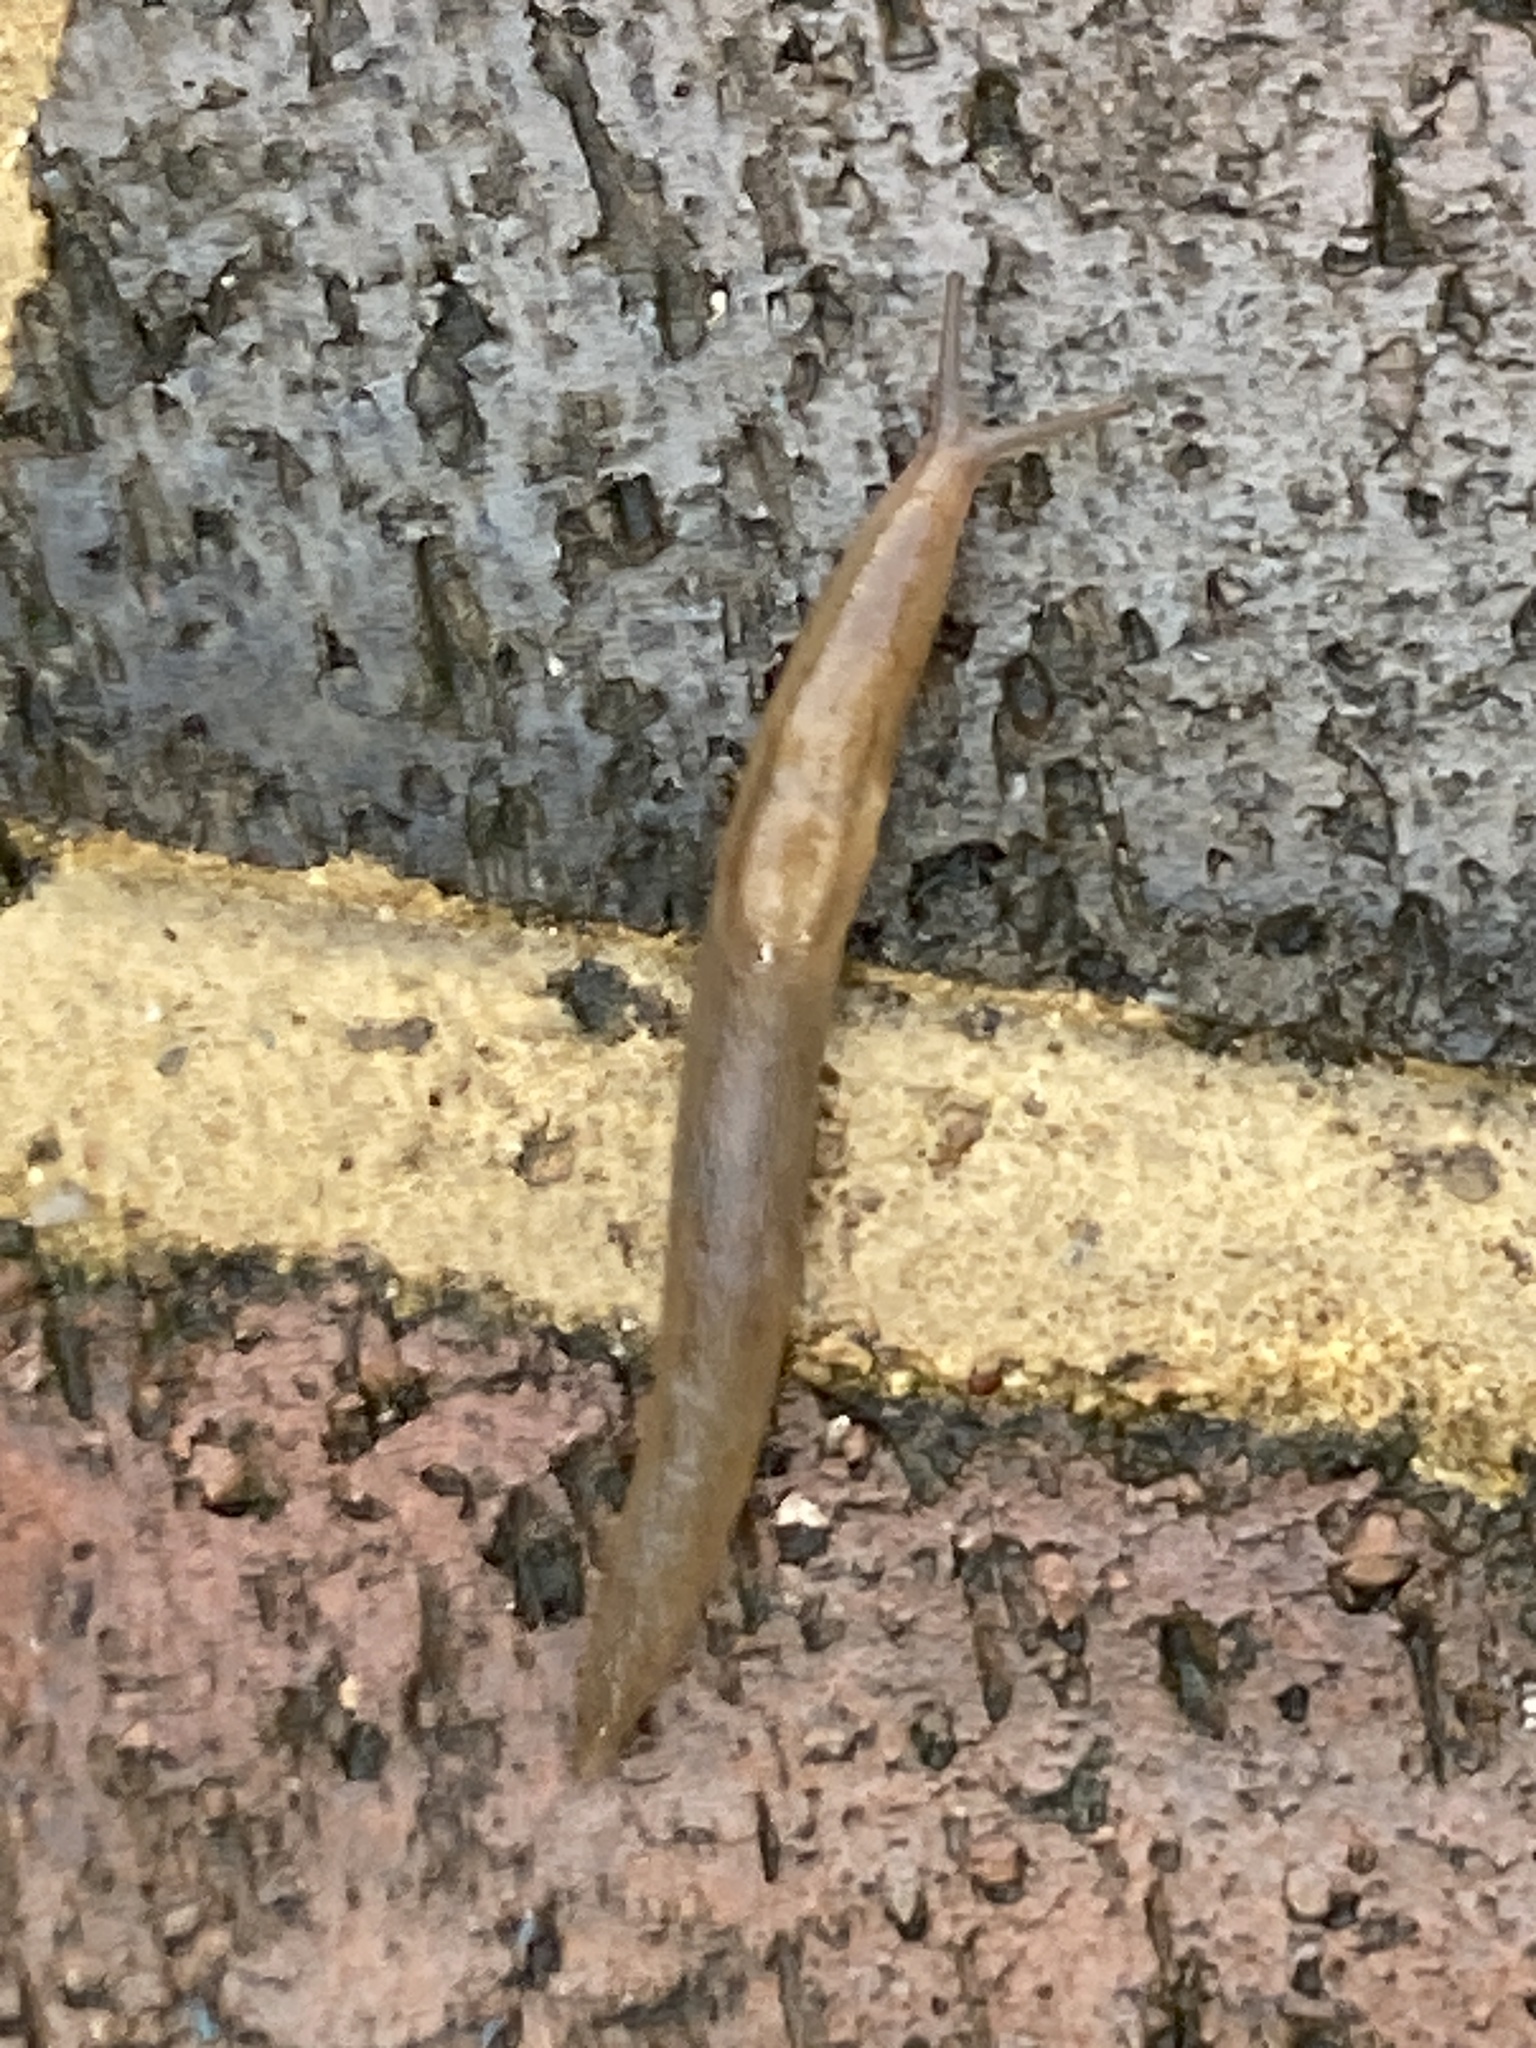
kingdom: Animalia
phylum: Mollusca
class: Gastropoda
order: Stylommatophora
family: Limacidae
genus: Ambigolimax
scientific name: Ambigolimax
